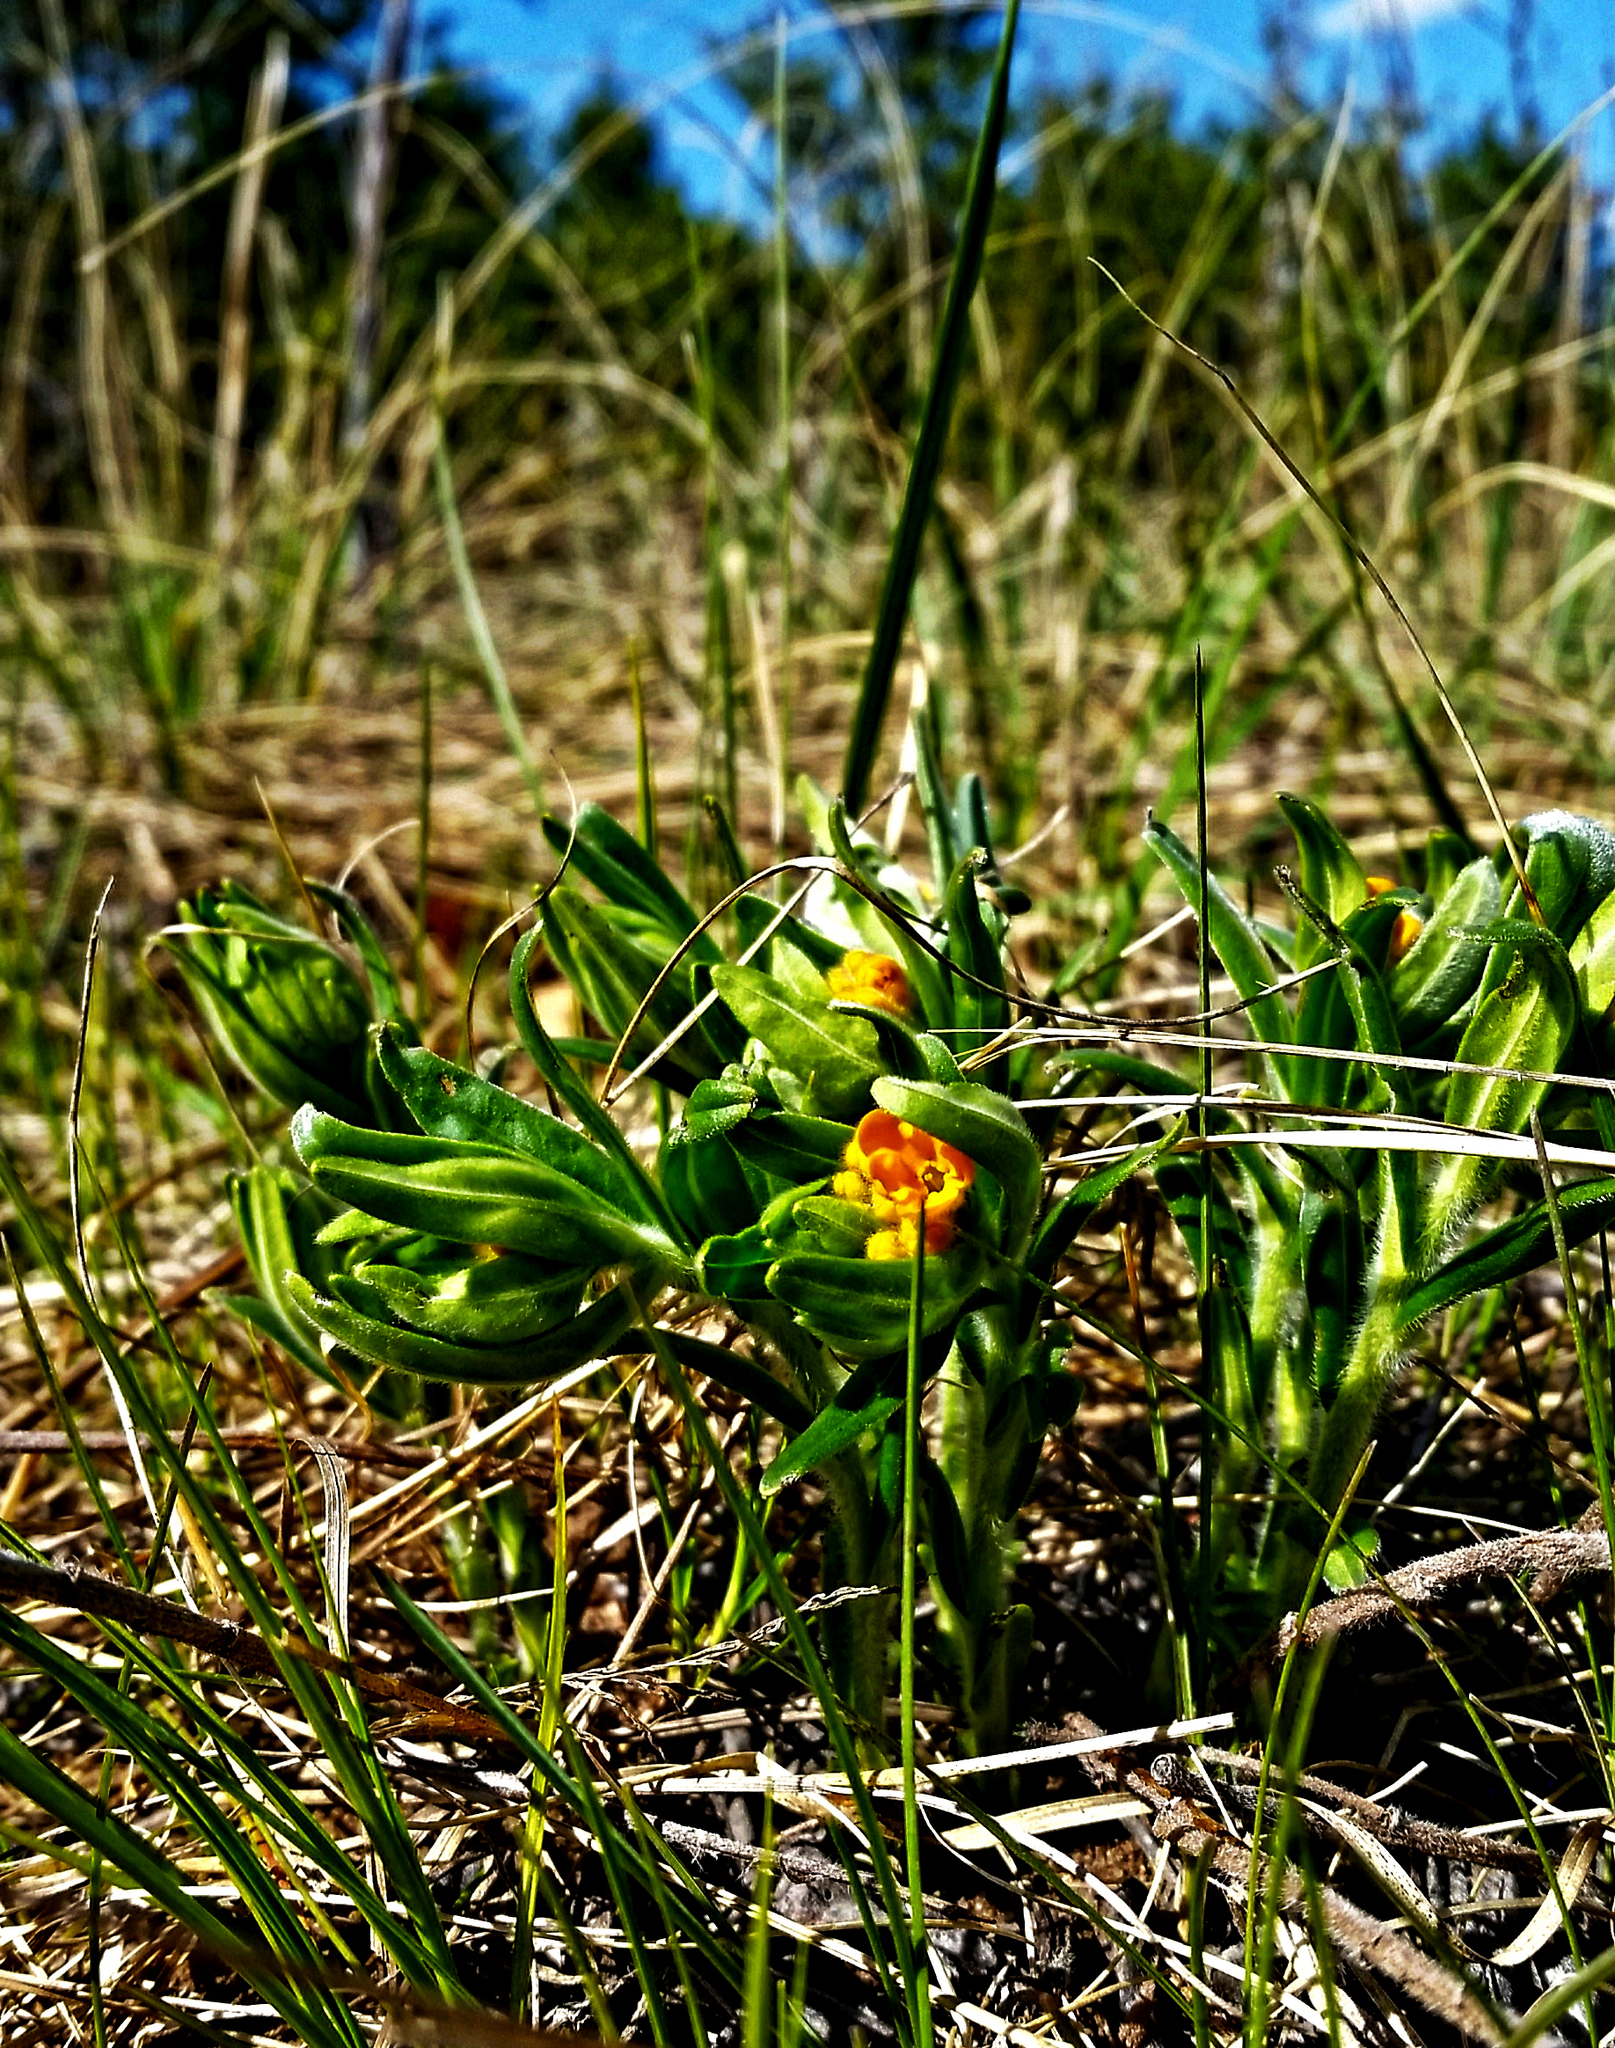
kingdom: Plantae
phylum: Tracheophyta
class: Magnoliopsida
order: Boraginales
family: Boraginaceae
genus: Lithospermum
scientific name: Lithospermum canescens
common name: Hoary puccoon
